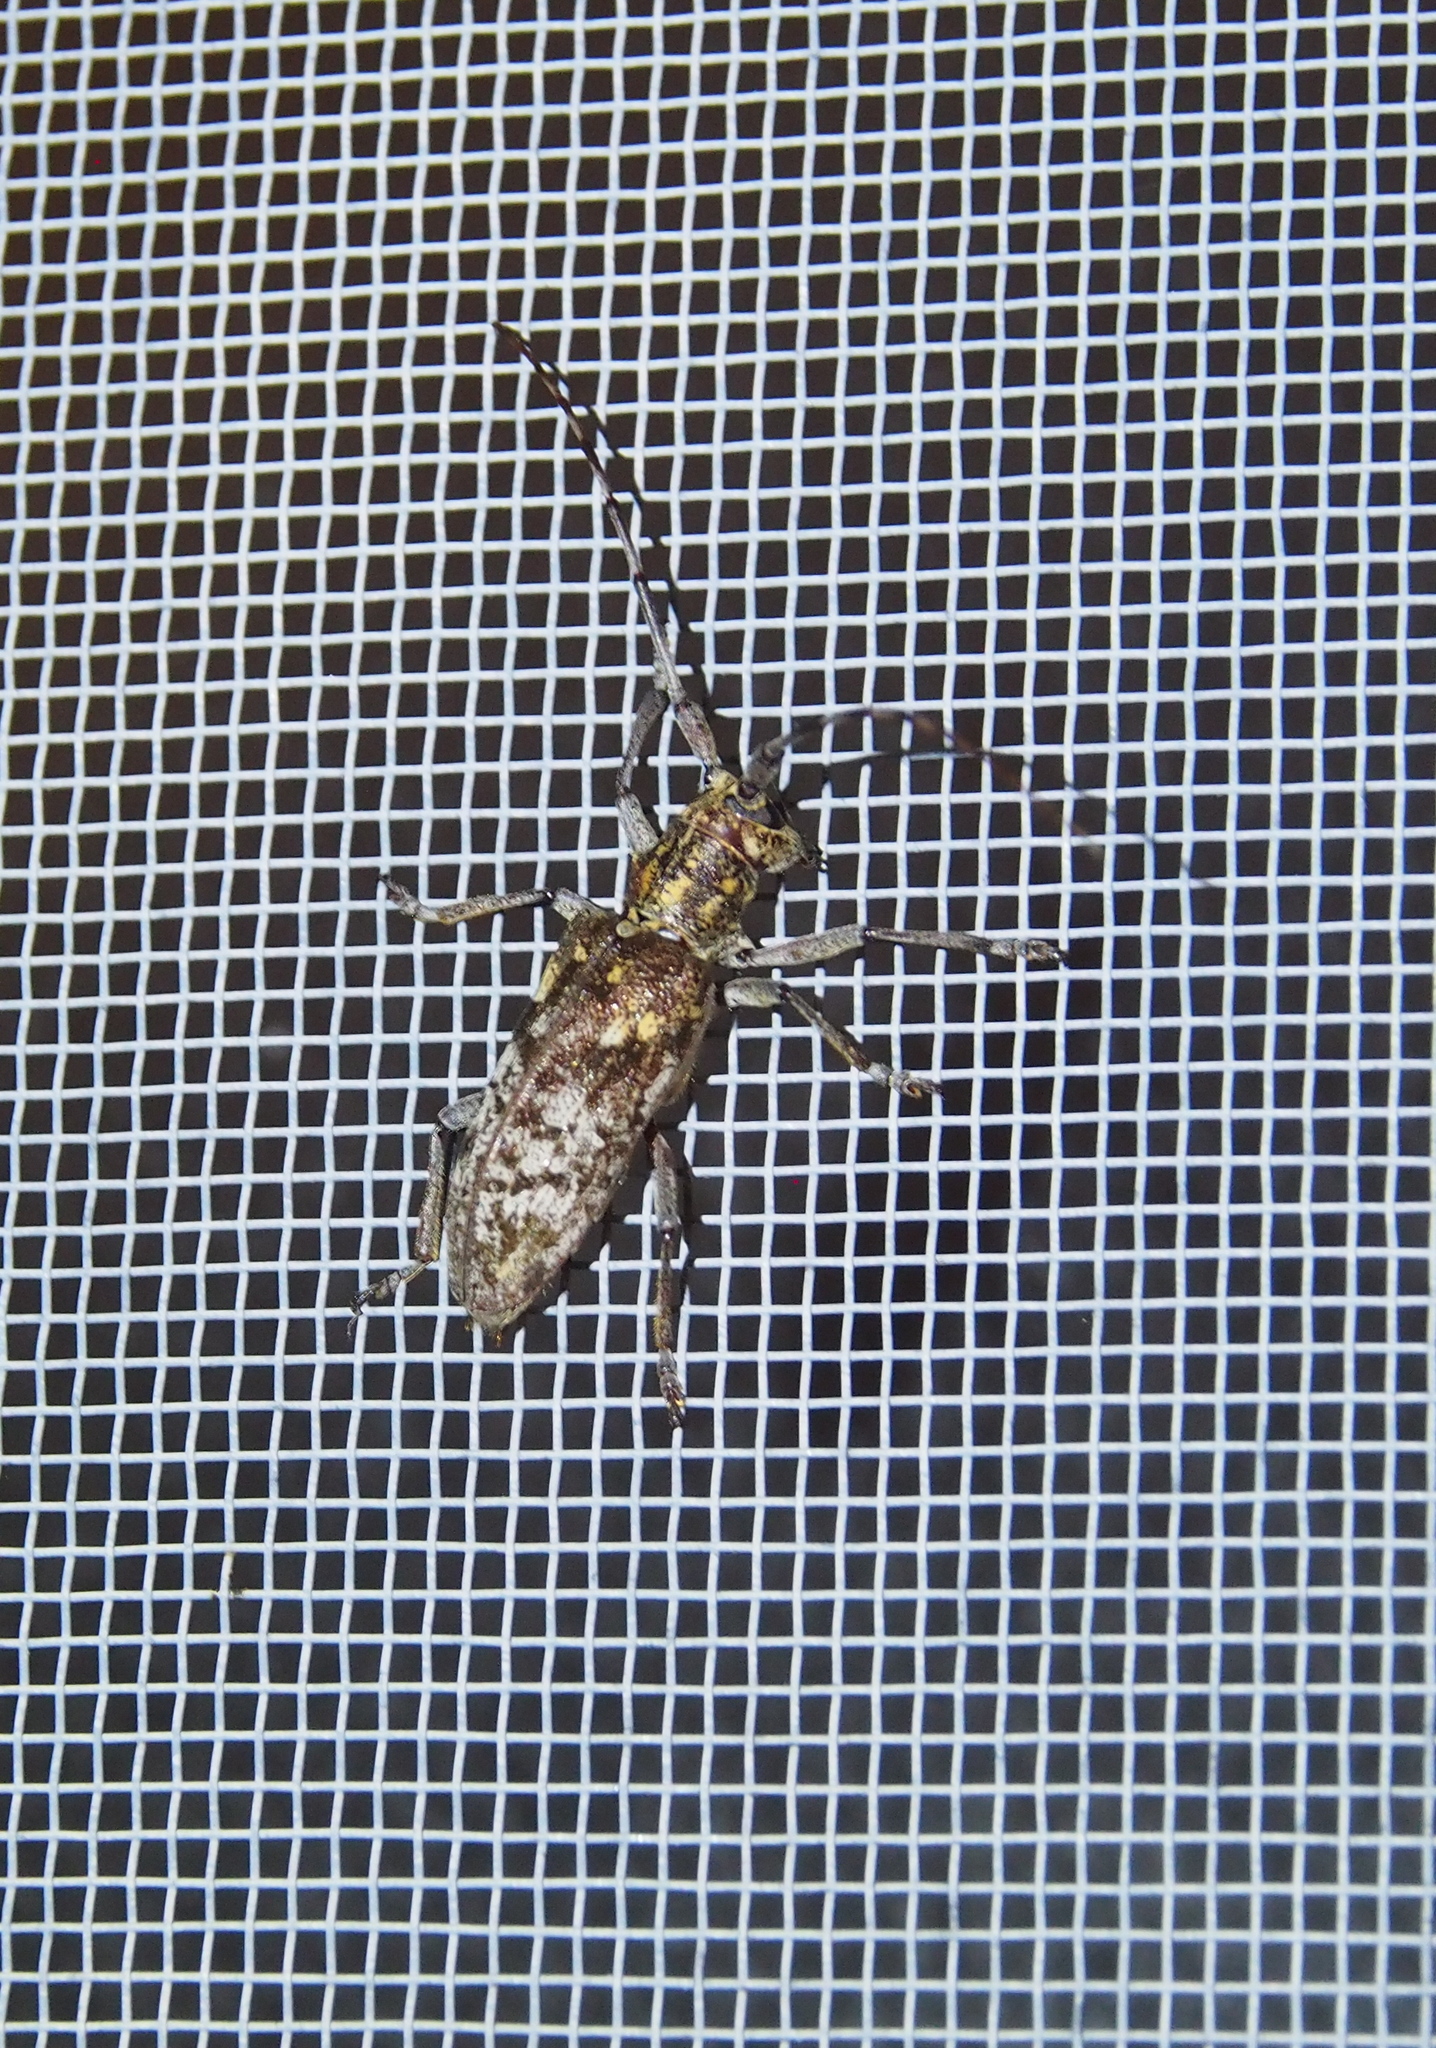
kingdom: Animalia
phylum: Arthropoda
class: Insecta
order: Coleoptera
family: Cerambycidae
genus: Monochamus
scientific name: Monochamus carolinensis
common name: Carolina pine sawyer
